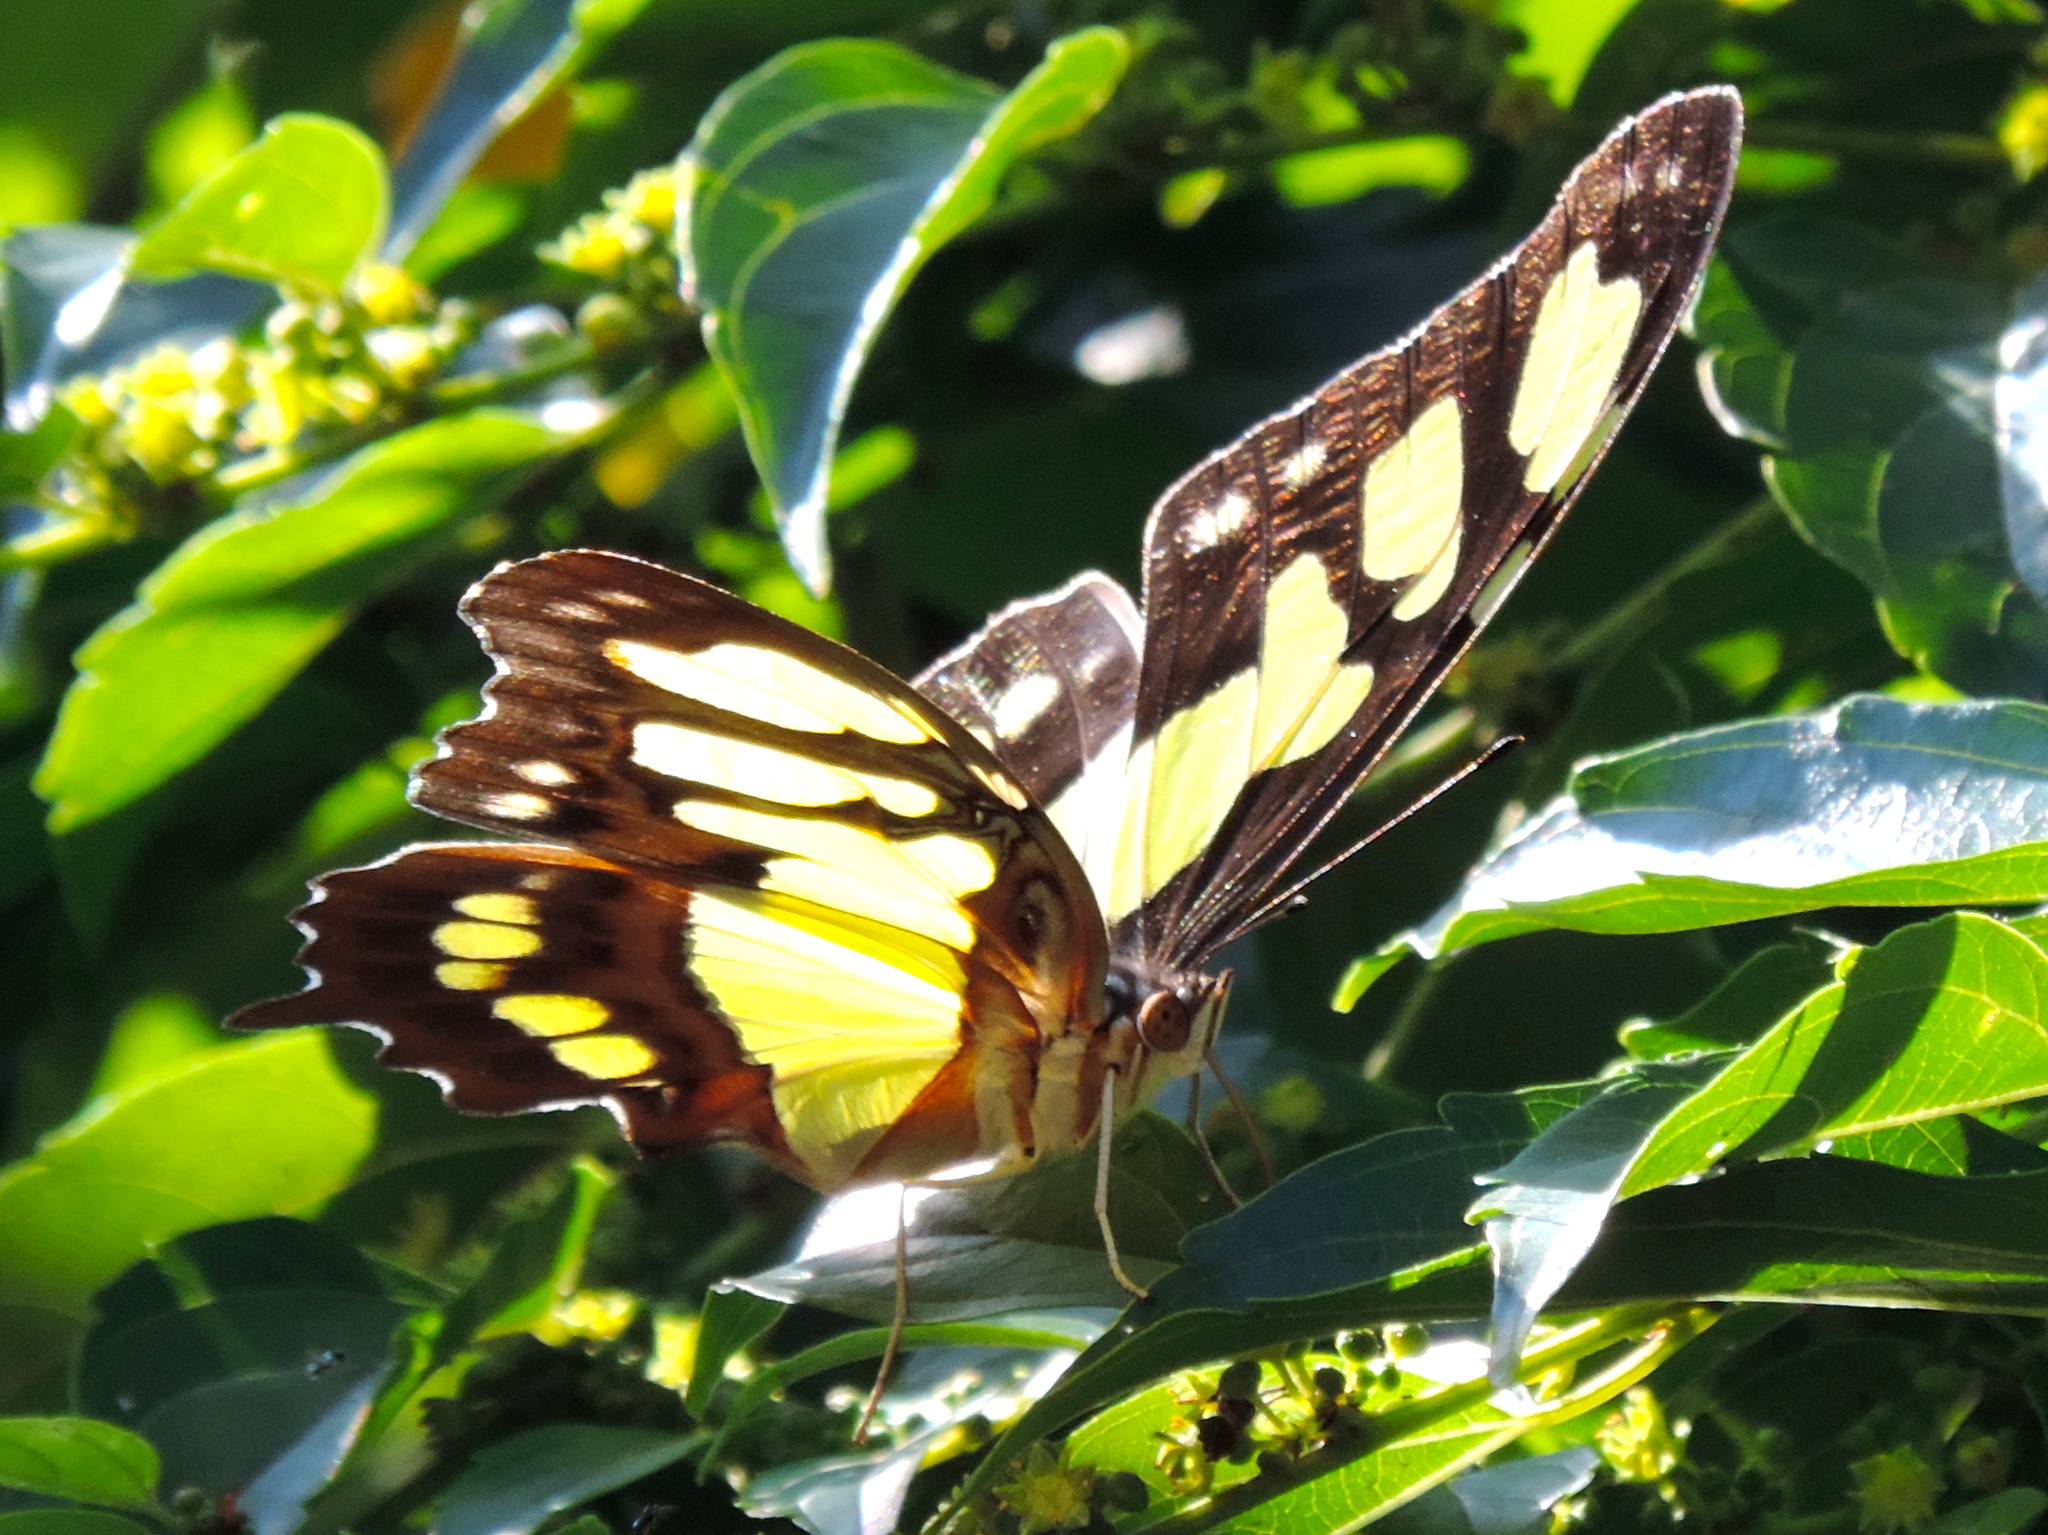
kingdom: Animalia
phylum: Arthropoda
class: Insecta
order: Lepidoptera
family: Nymphalidae
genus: Siproeta
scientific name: Siproeta stelenes
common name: Malachite
